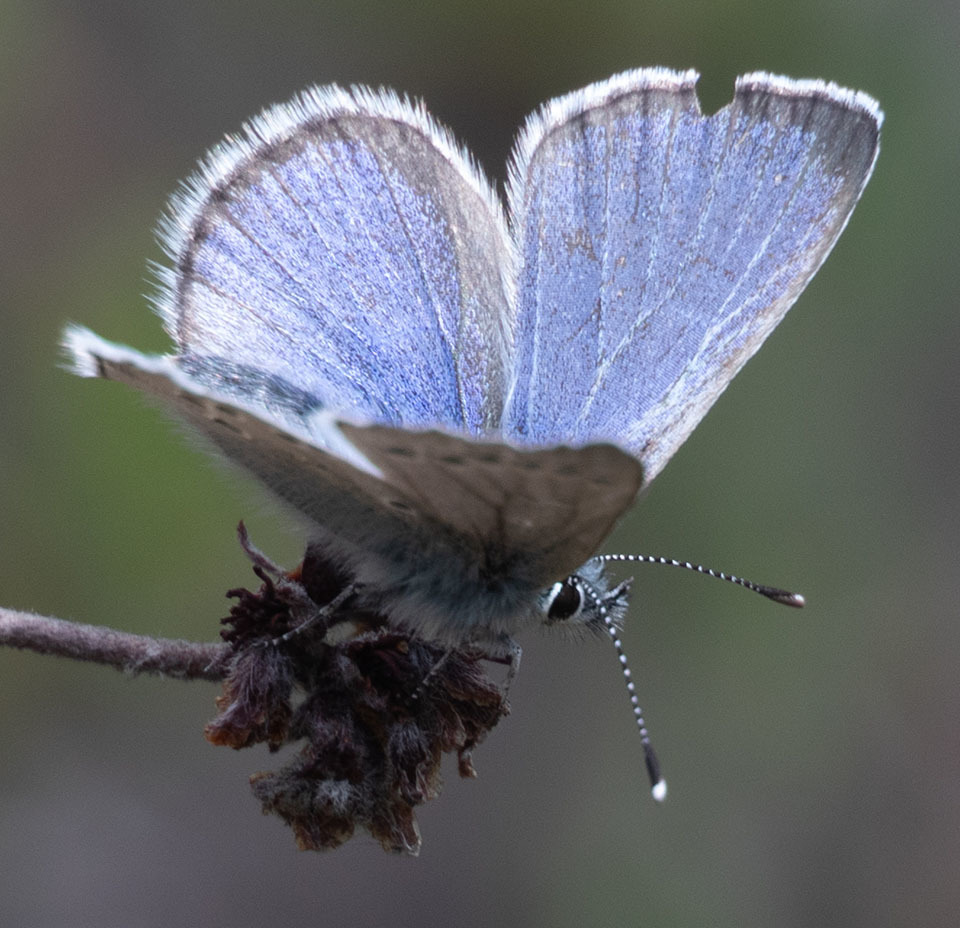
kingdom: Animalia
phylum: Arthropoda
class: Insecta
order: Lepidoptera
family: Lycaenidae
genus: Glaucopsyche
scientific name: Glaucopsyche lygdamus
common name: Silvery blue
